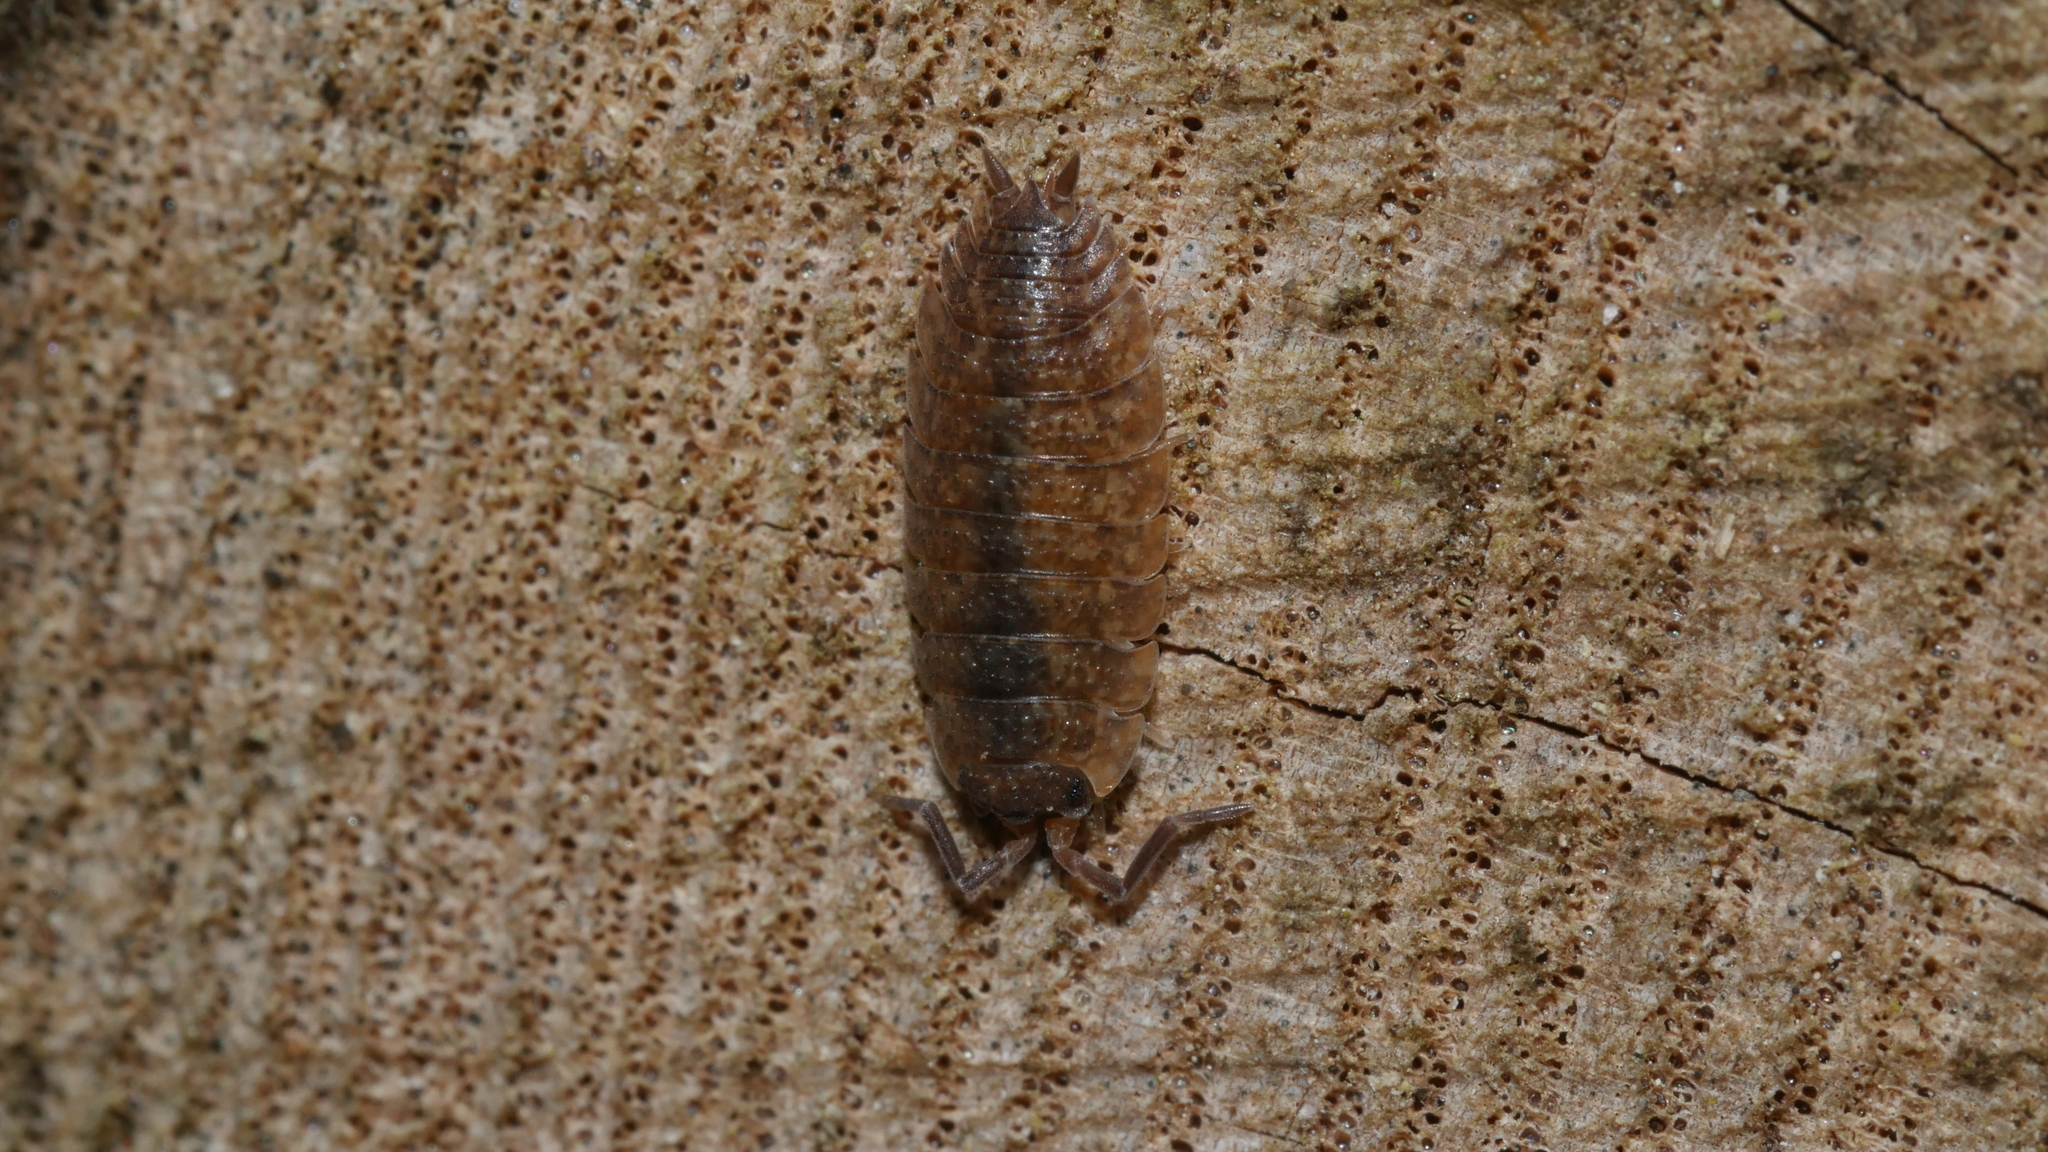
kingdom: Animalia
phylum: Arthropoda
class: Malacostraca
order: Isopoda
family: Porcellionidae
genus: Porcellio
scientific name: Porcellio scaber
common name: Common rough woodlouse
